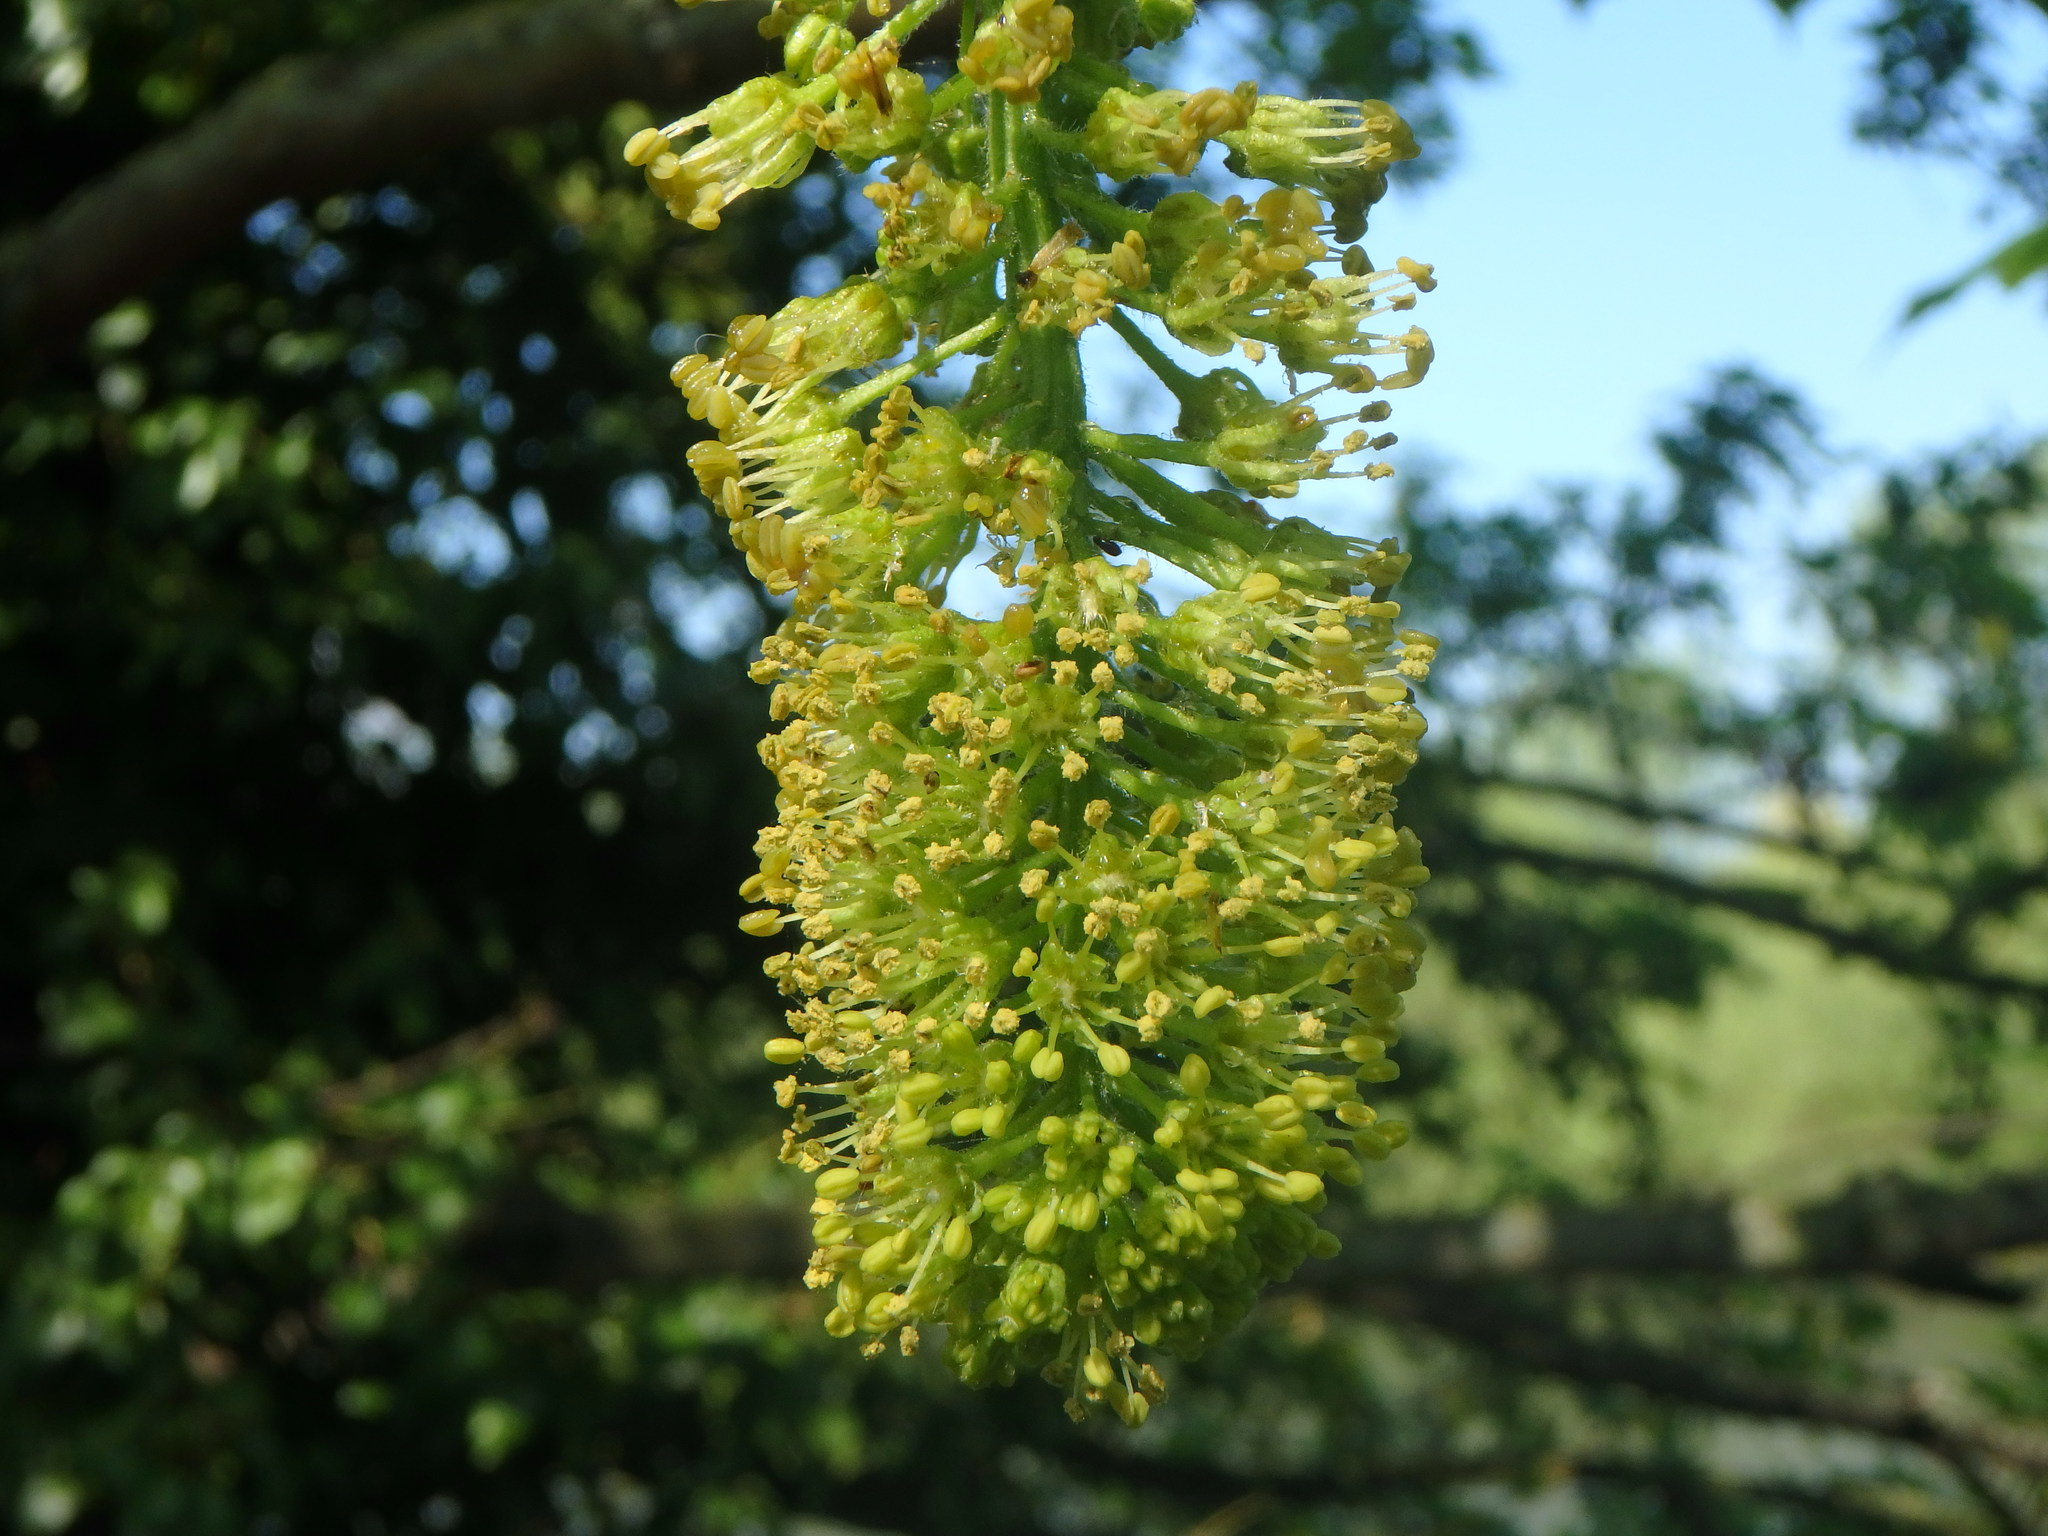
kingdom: Plantae
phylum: Tracheophyta
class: Magnoliopsida
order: Sapindales
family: Sapindaceae
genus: Acer
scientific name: Acer pseudoplatanus
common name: Sycamore
